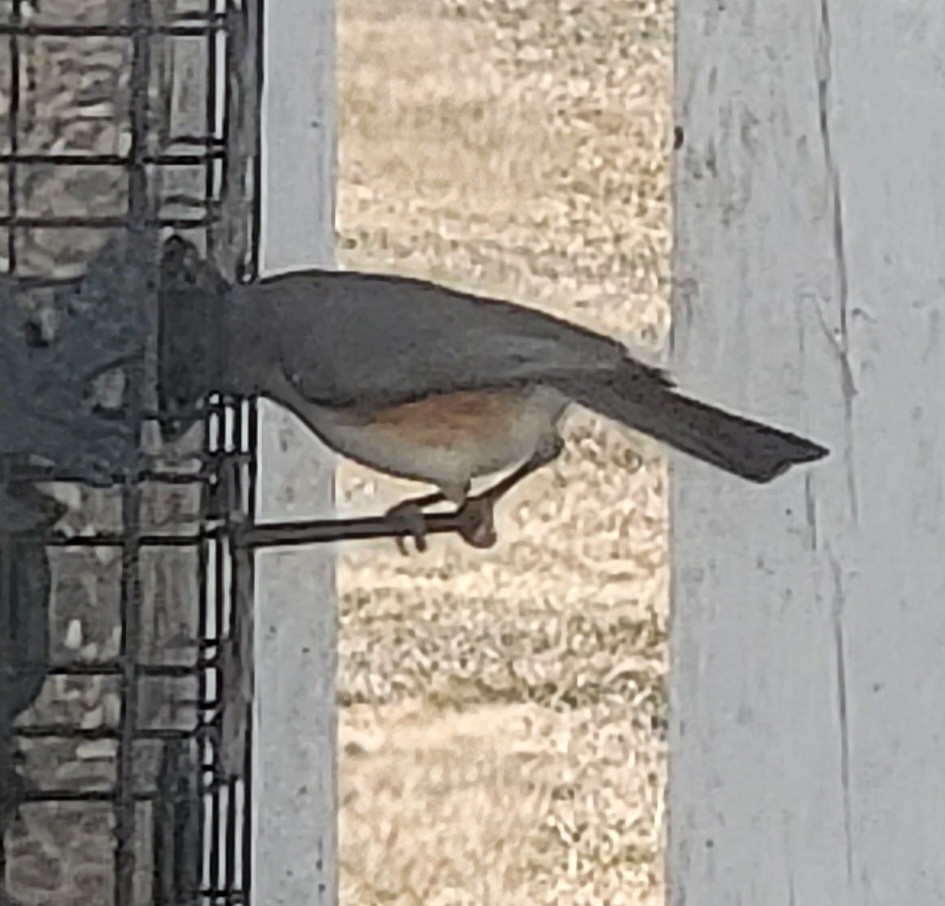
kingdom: Animalia
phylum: Chordata
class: Aves
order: Passeriformes
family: Paridae
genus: Baeolophus
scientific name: Baeolophus bicolor
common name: Tufted titmouse
